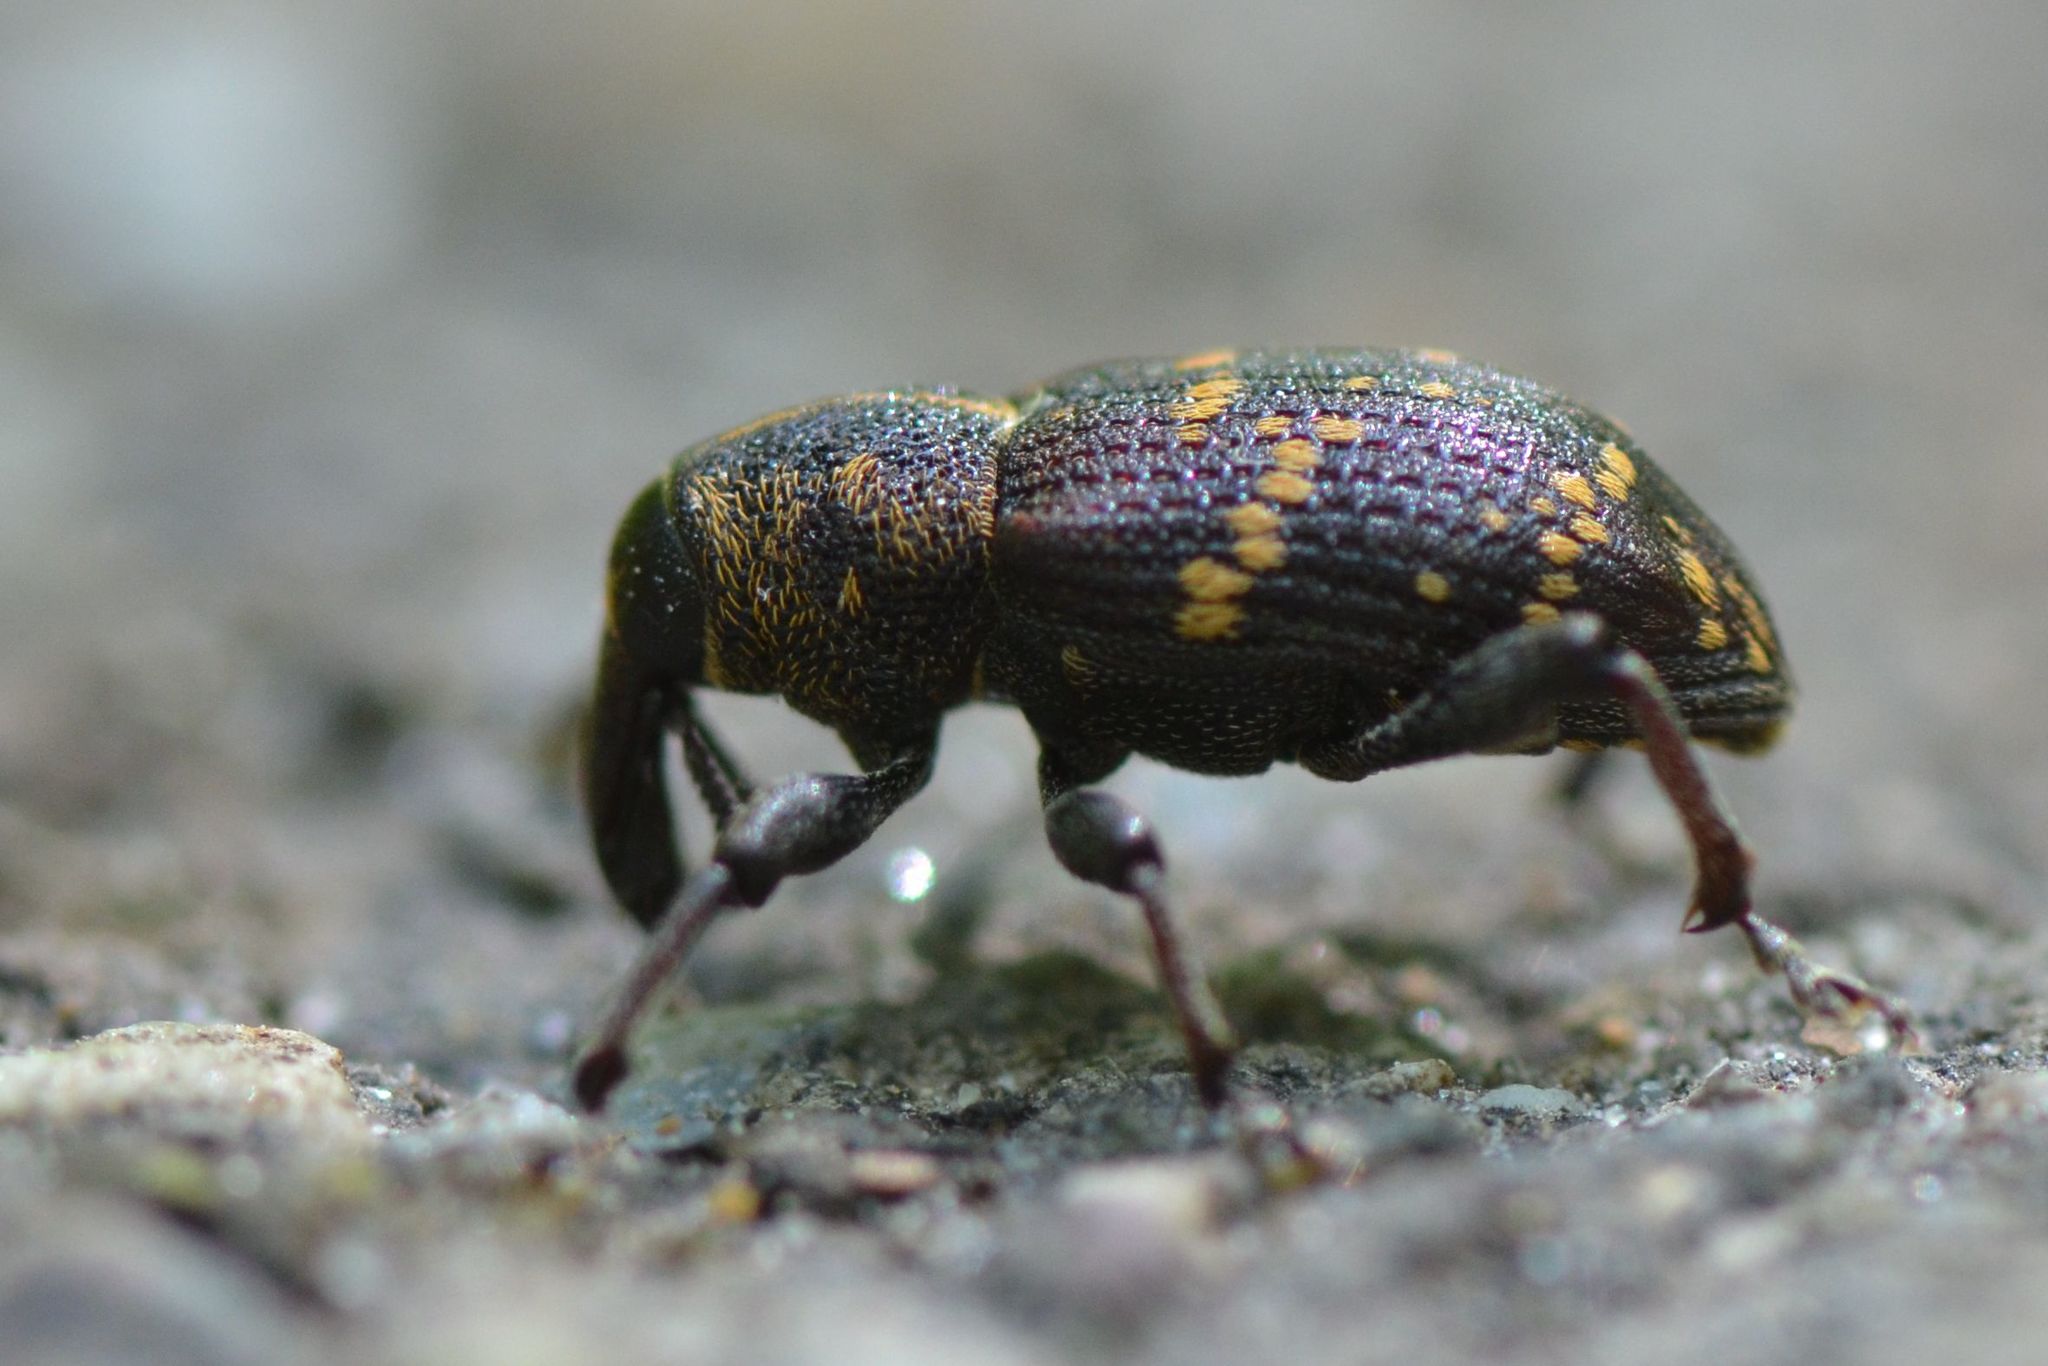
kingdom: Animalia
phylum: Arthropoda
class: Insecta
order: Coleoptera
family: Curculionidae
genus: Hylobius
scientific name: Hylobius abietis
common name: Large pine weevil
